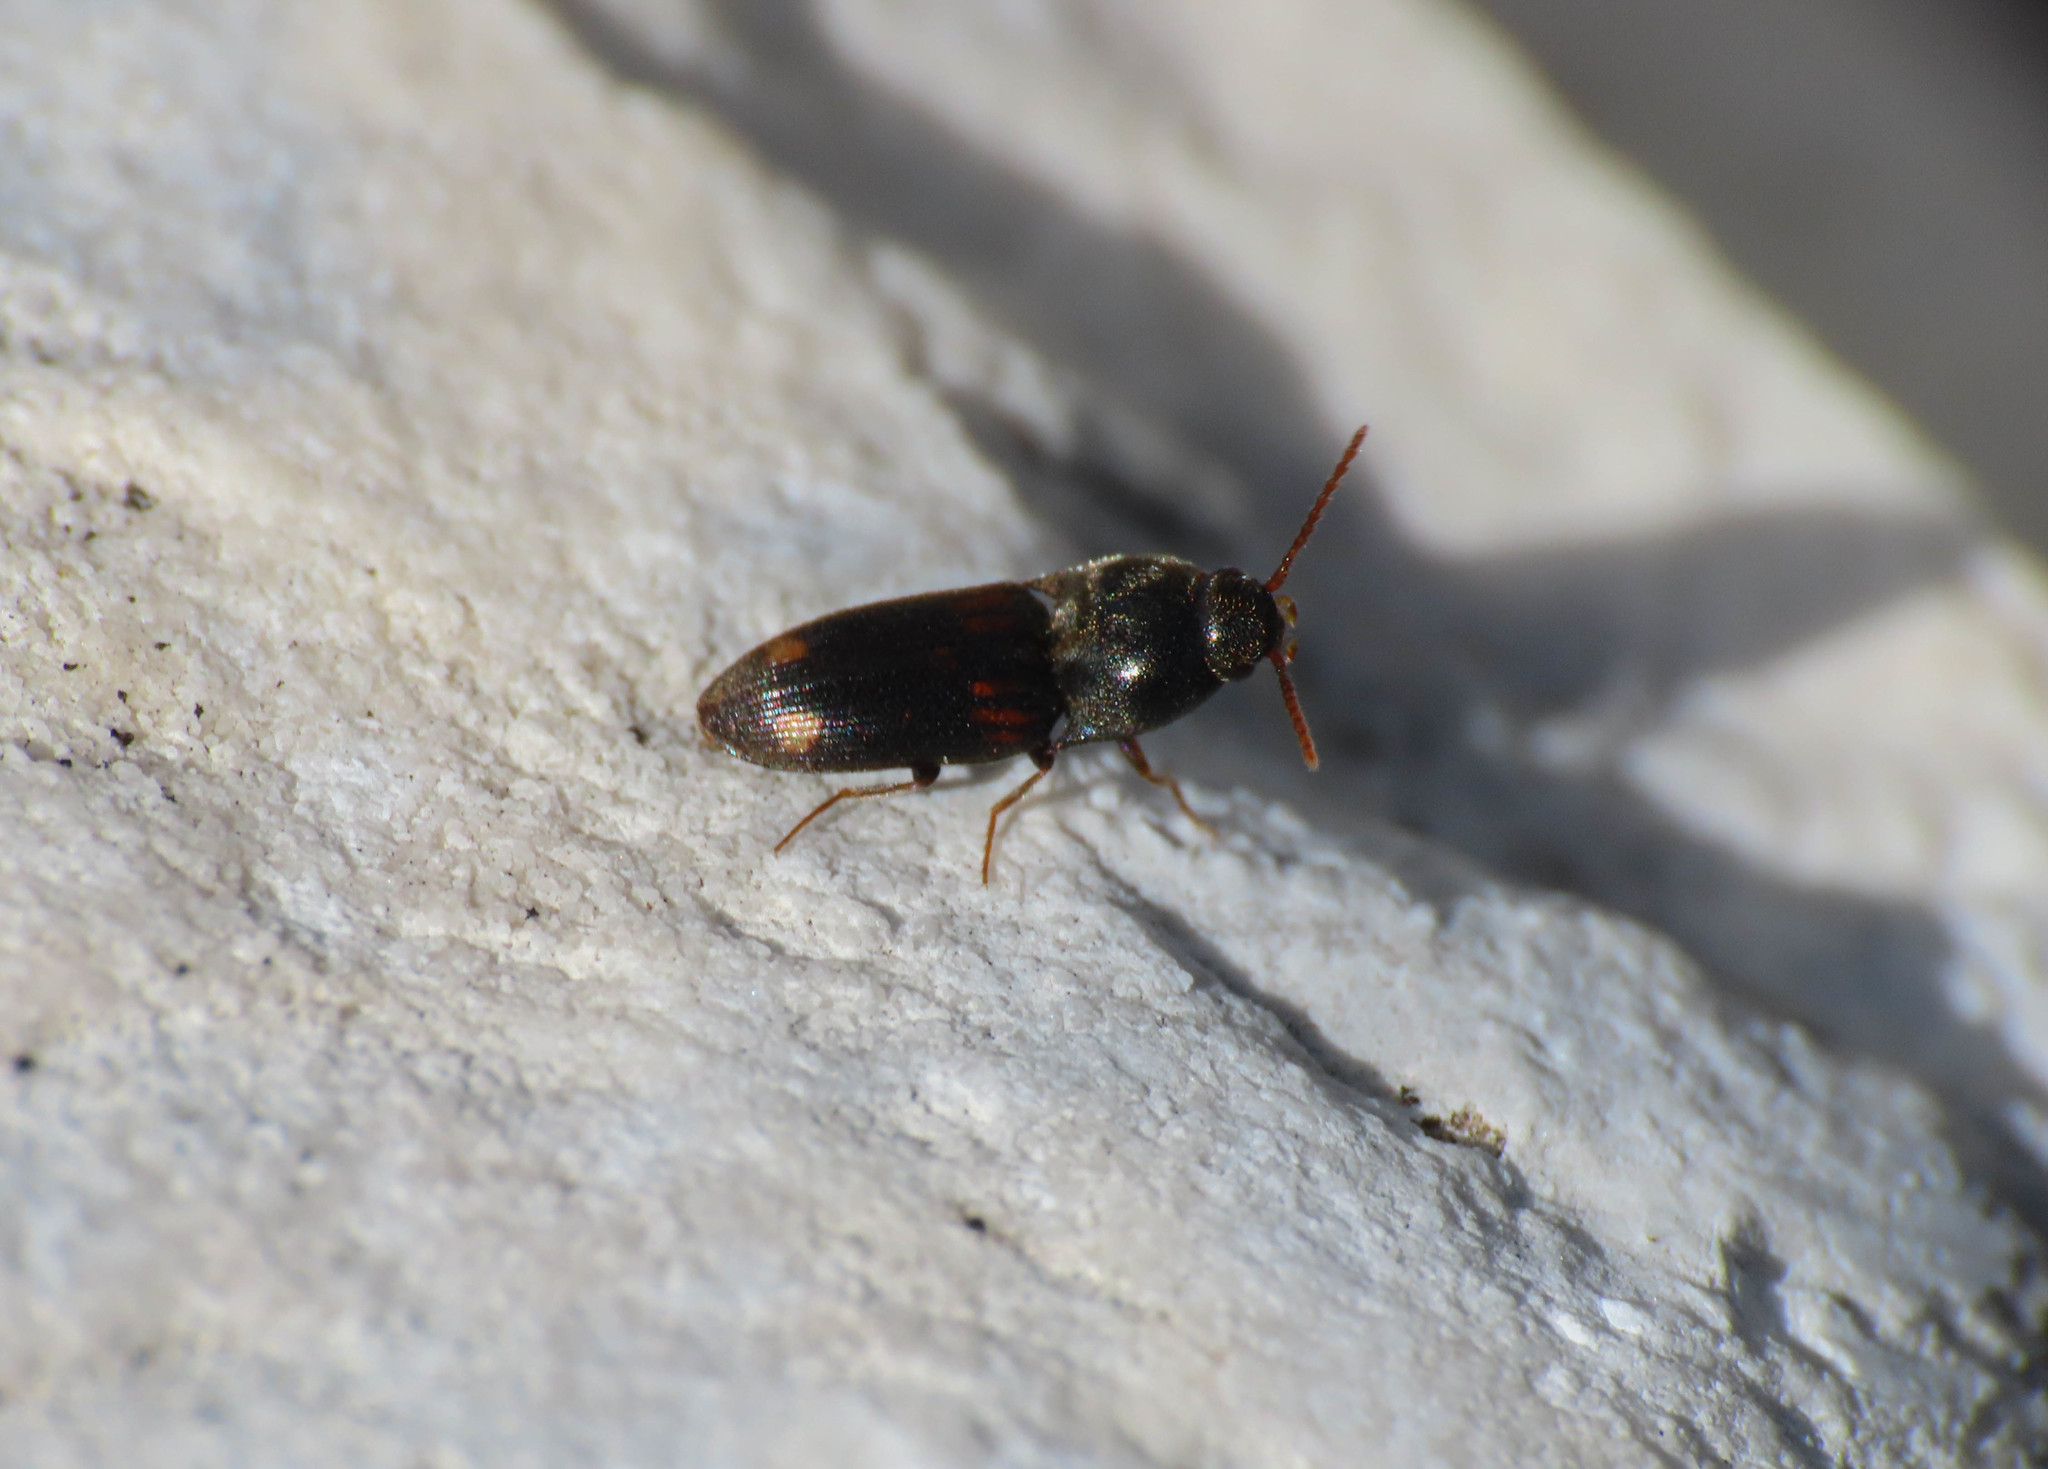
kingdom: Animalia
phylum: Arthropoda
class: Insecta
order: Coleoptera
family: Elateridae
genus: Drasterius
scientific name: Drasterius bimaculatus
